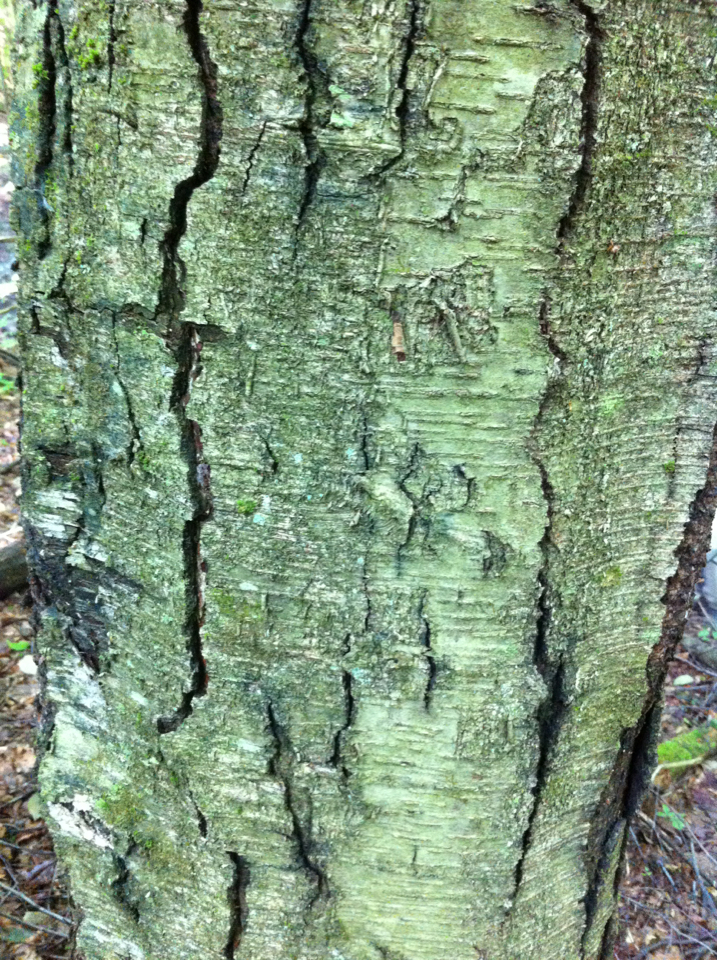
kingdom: Plantae
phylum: Tracheophyta
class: Magnoliopsida
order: Fagales
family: Betulaceae
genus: Betula
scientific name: Betula lenta
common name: Black birch
